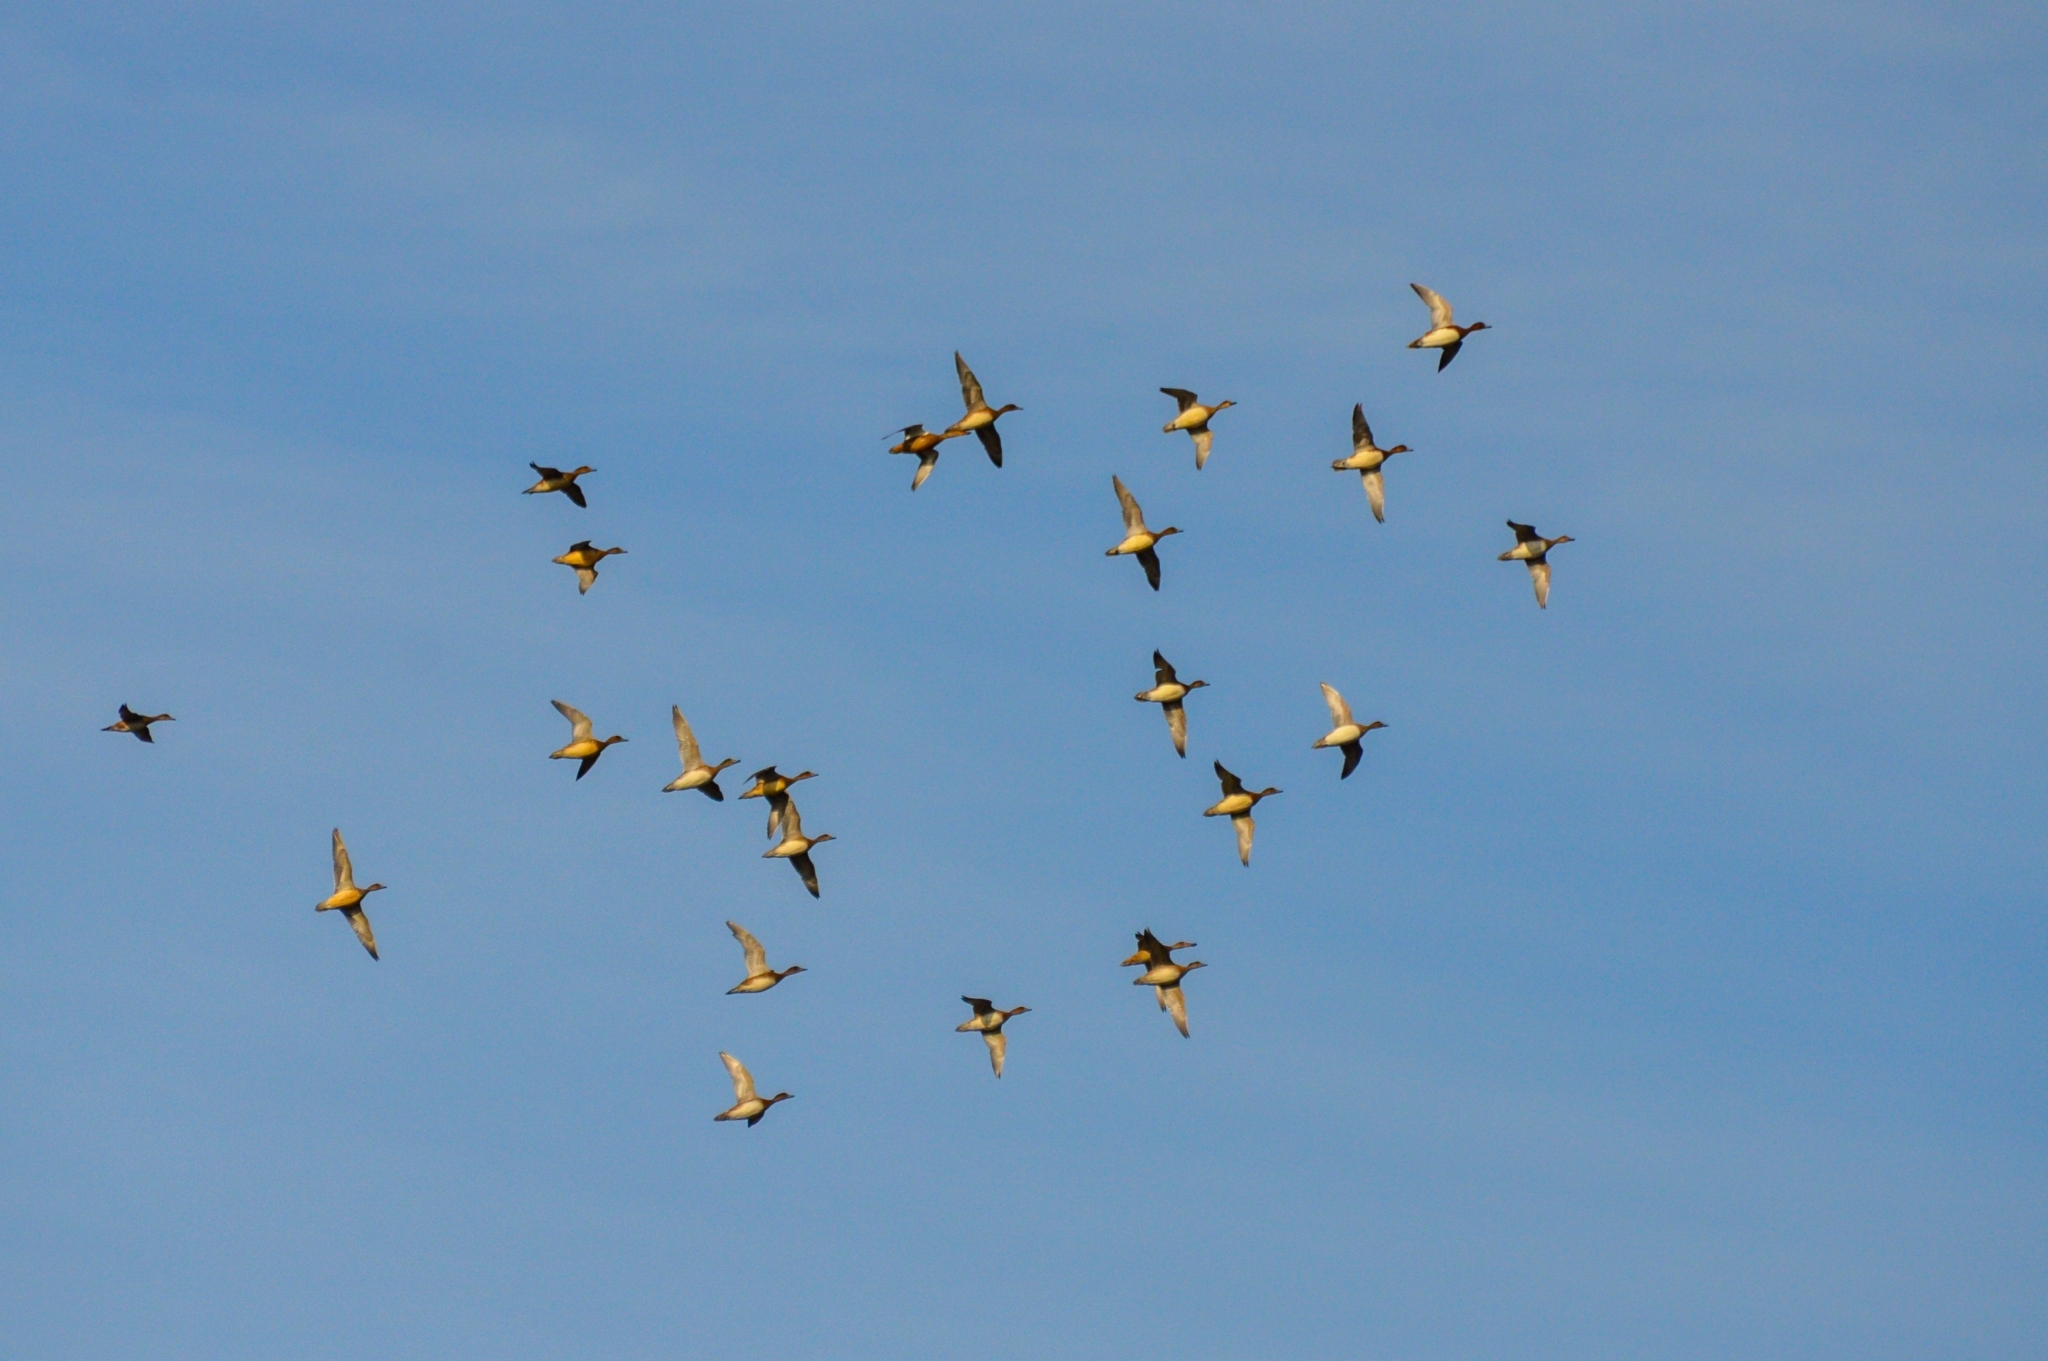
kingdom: Animalia
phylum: Chordata
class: Aves
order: Anseriformes
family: Anatidae
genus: Mareca
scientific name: Mareca penelope
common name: Eurasian wigeon
